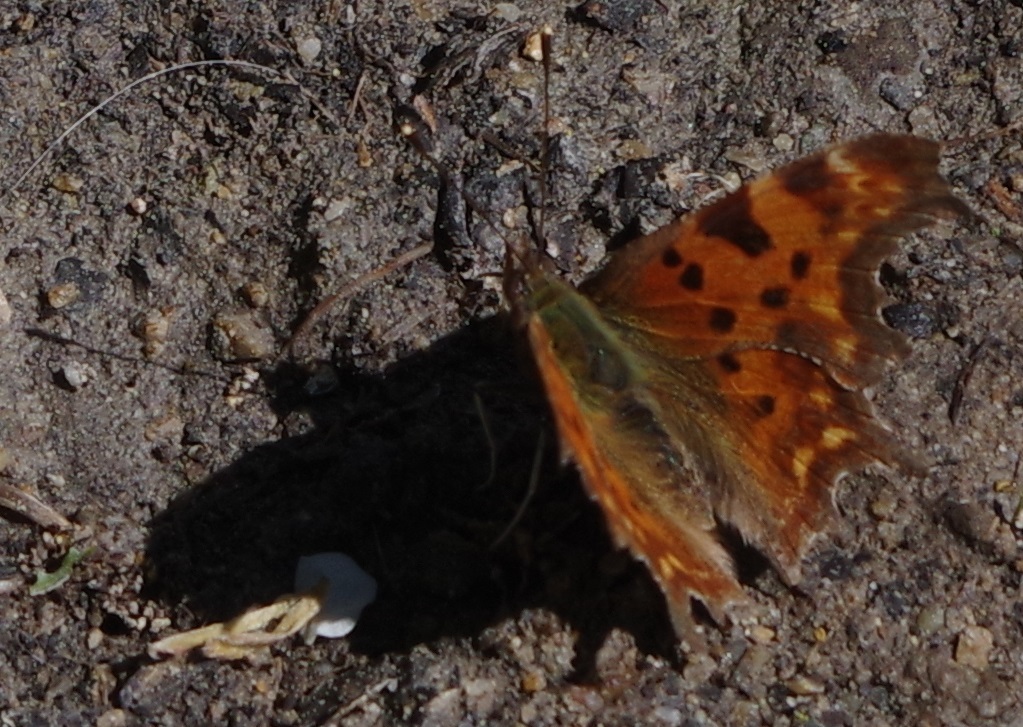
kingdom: Animalia
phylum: Arthropoda
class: Insecta
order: Lepidoptera
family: Nymphalidae
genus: Polygonia
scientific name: Polygonia c-album
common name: Comma
